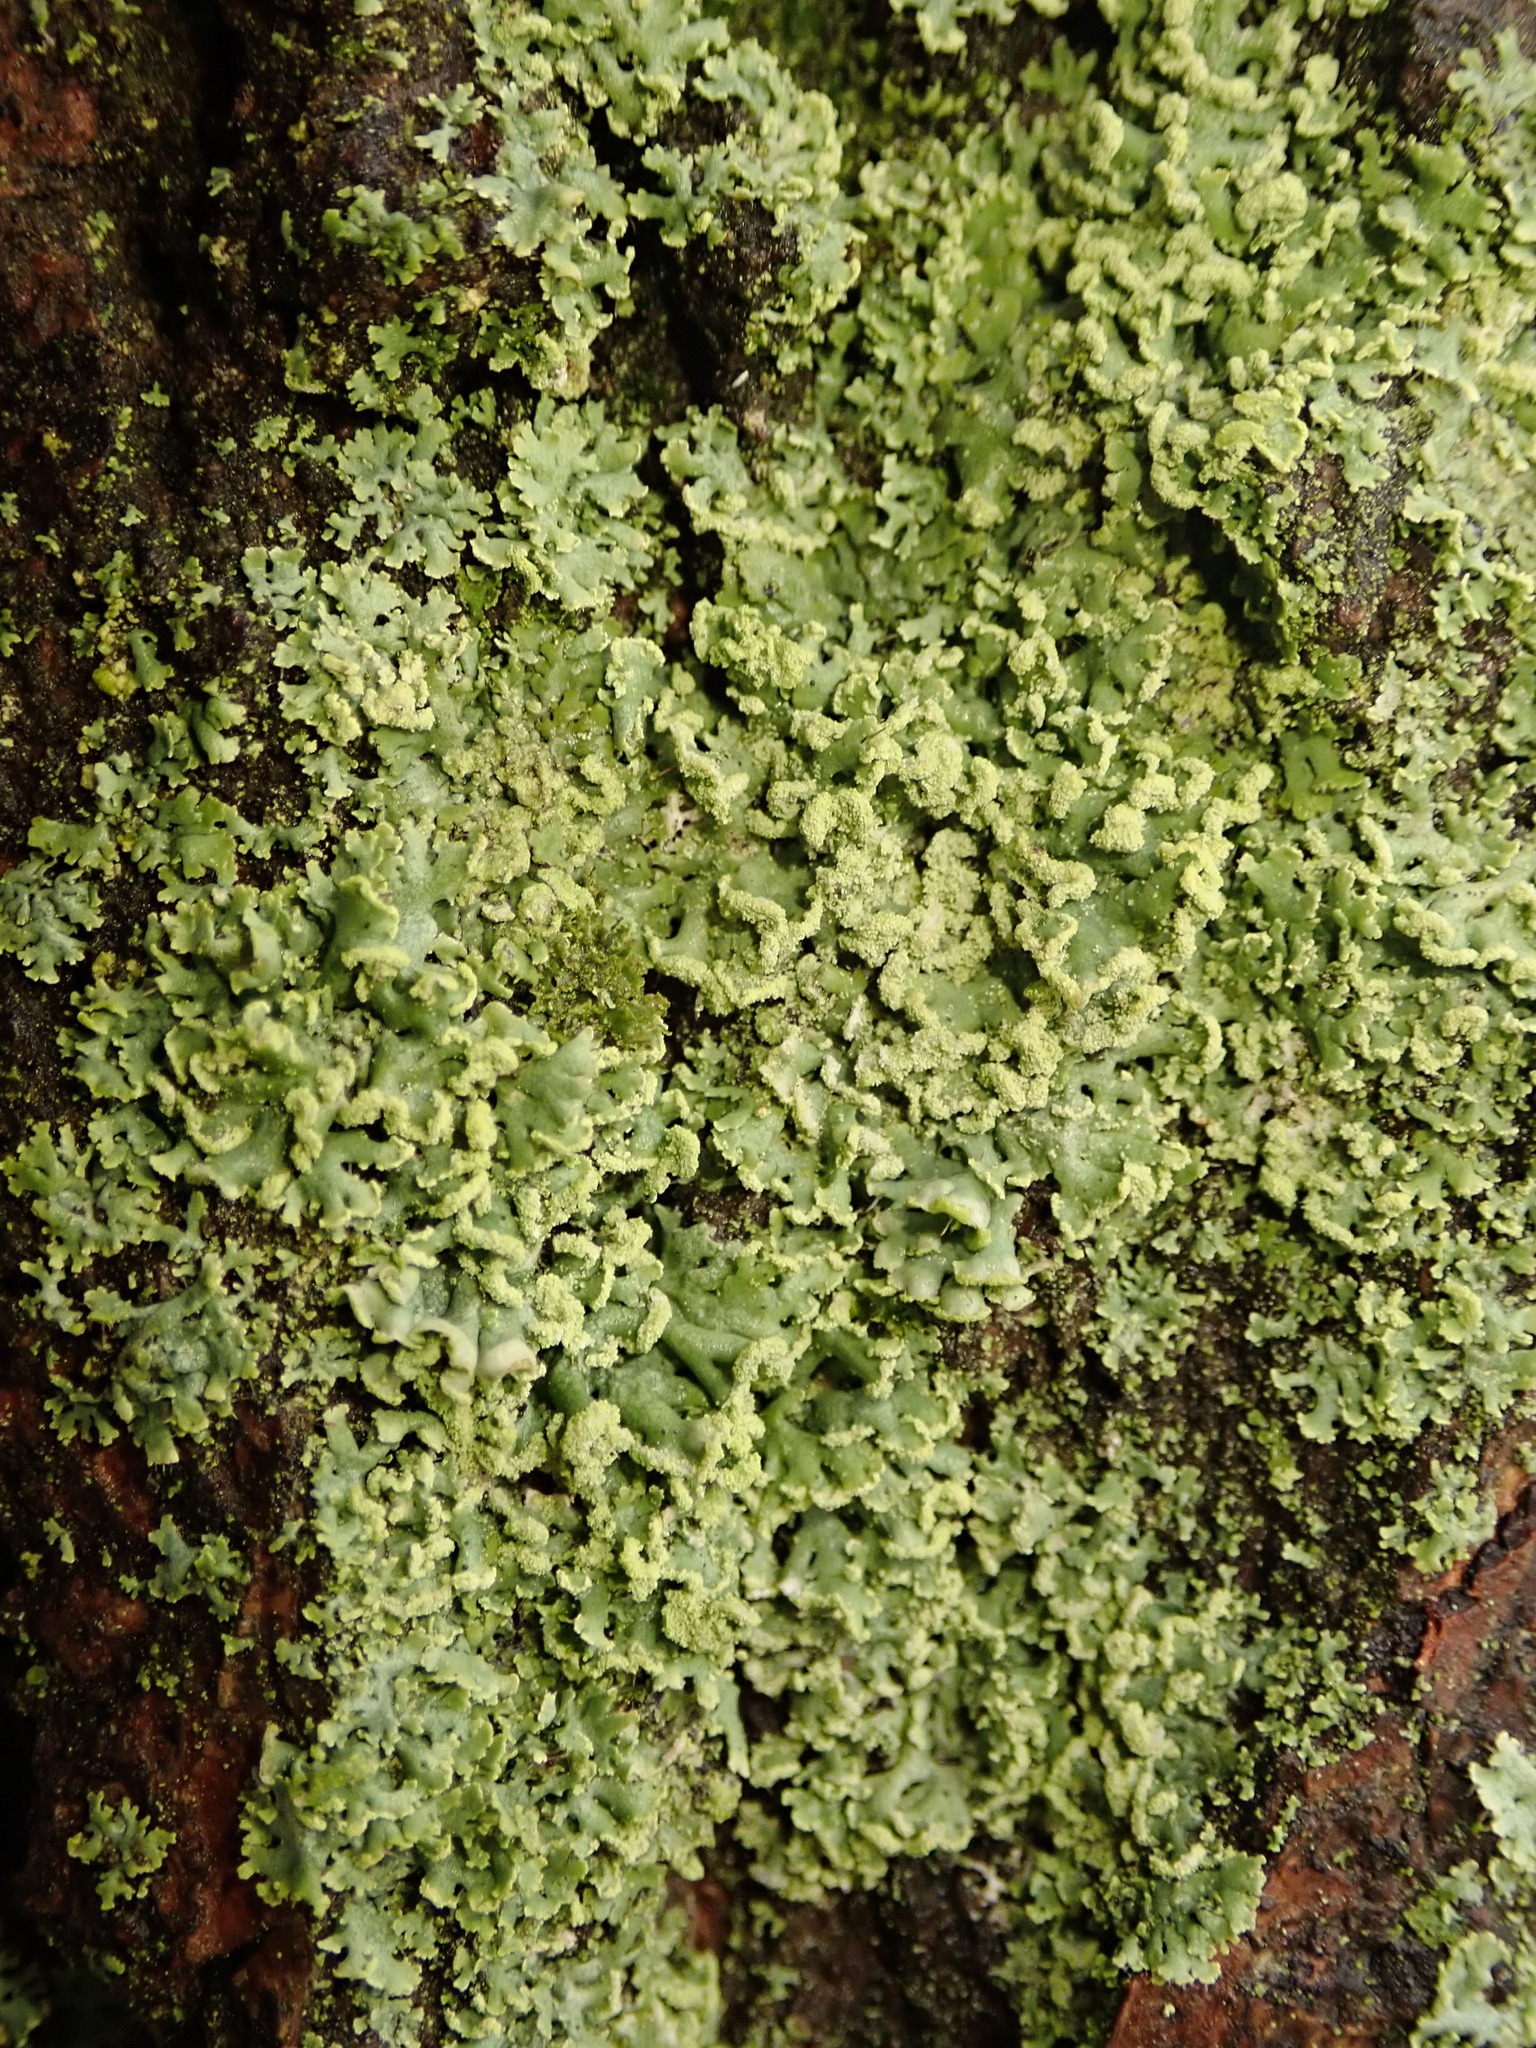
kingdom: Fungi
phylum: Ascomycota
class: Lecanoromycetes
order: Caliciales
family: Physciaceae
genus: Physcia
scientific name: Physcia dubia
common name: Powder-tipped rosette lichen
